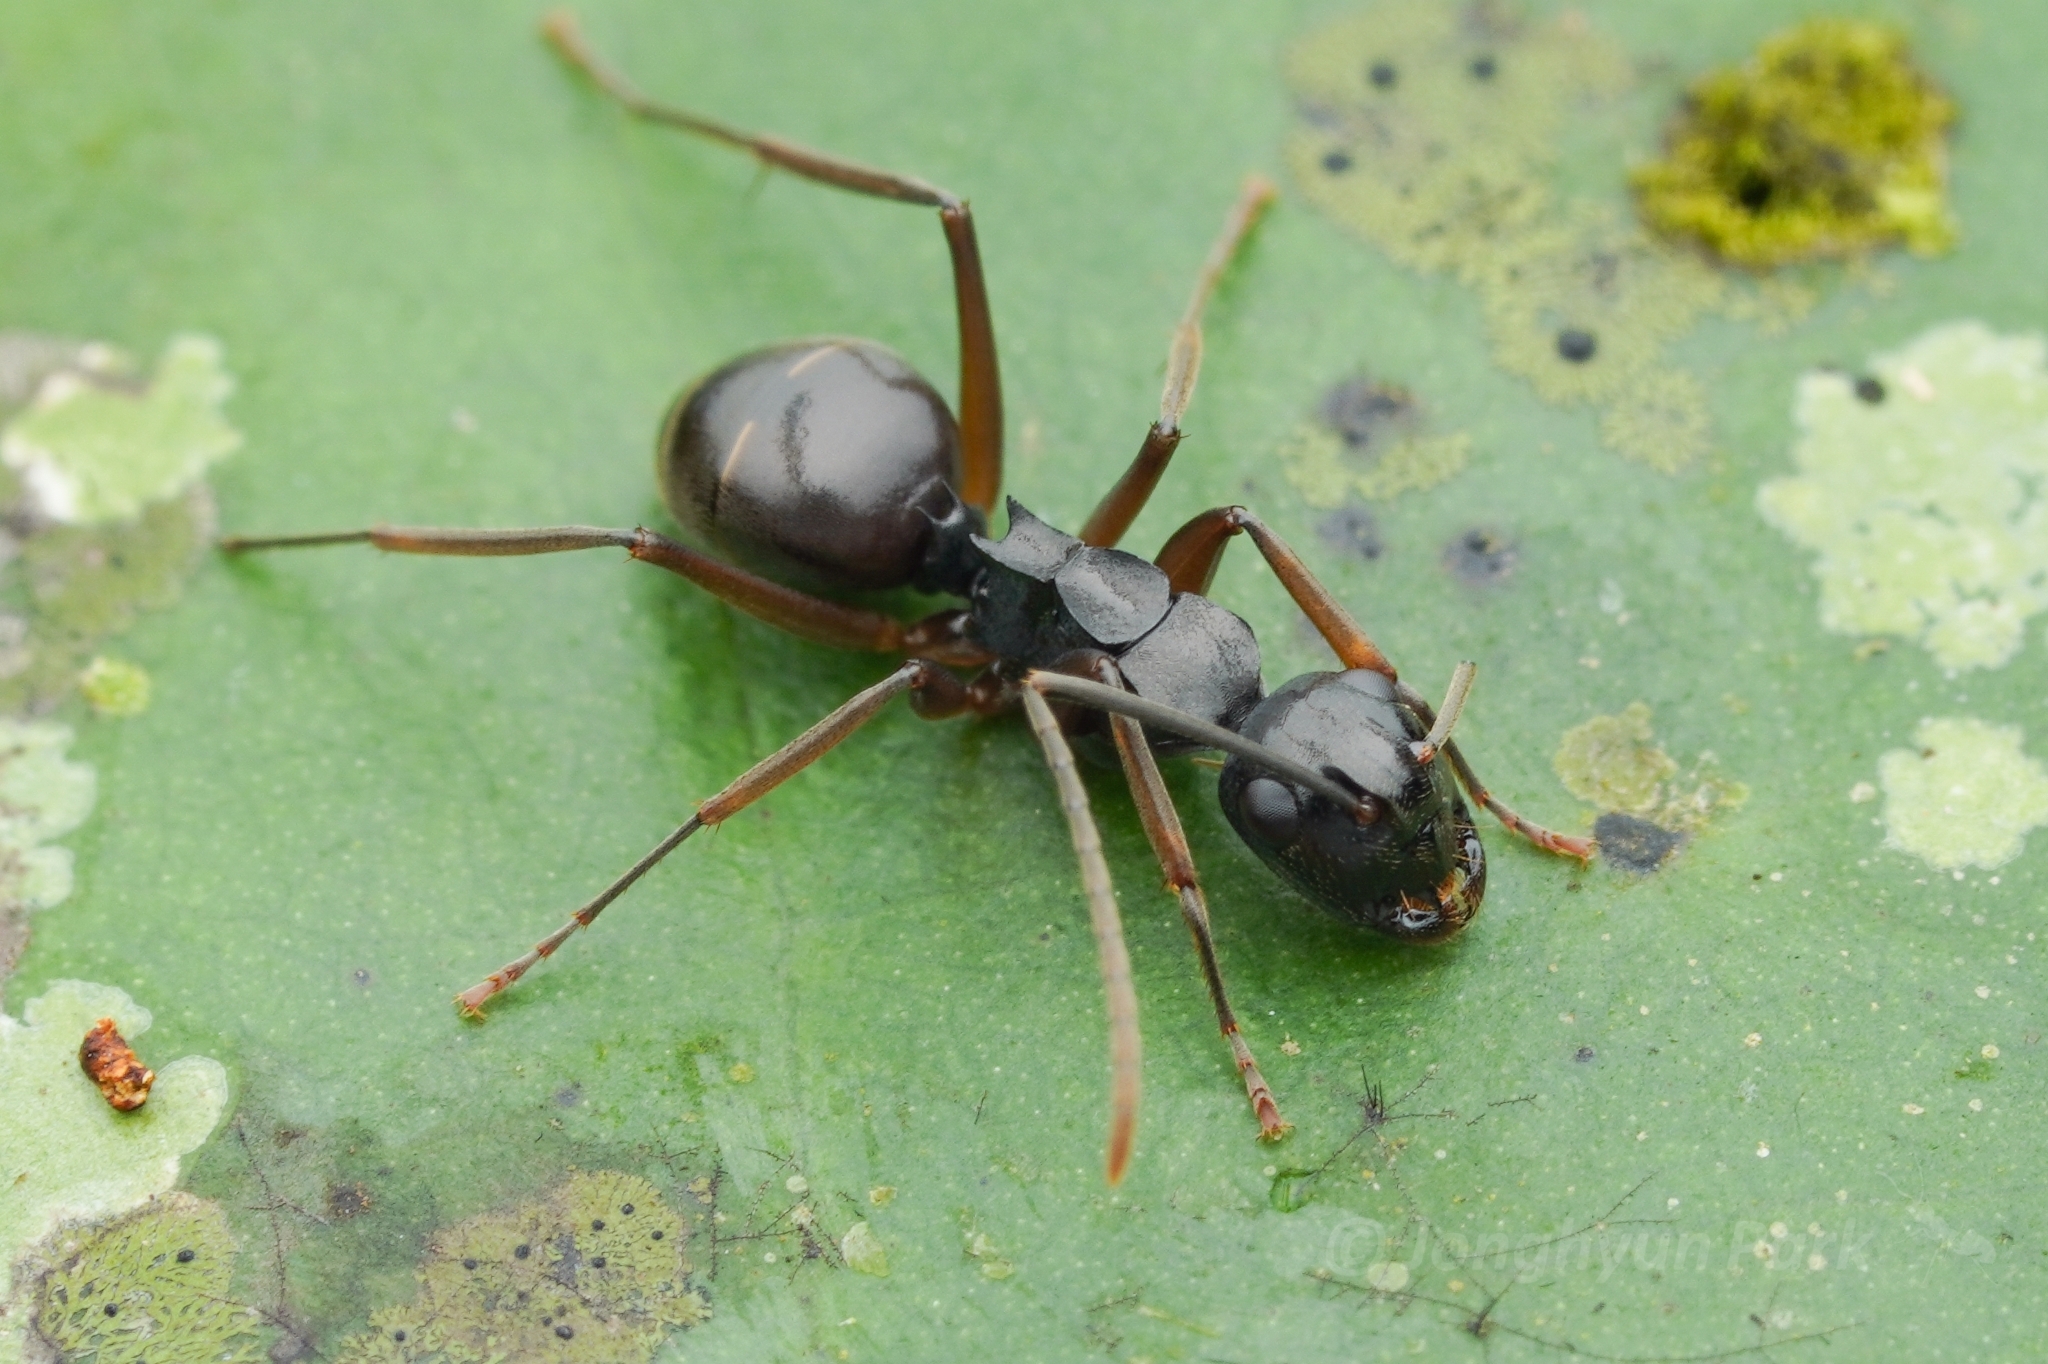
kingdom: Animalia
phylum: Arthropoda
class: Insecta
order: Hymenoptera
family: Formicidae
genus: Polyrhachis
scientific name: Polyrhachis equina
